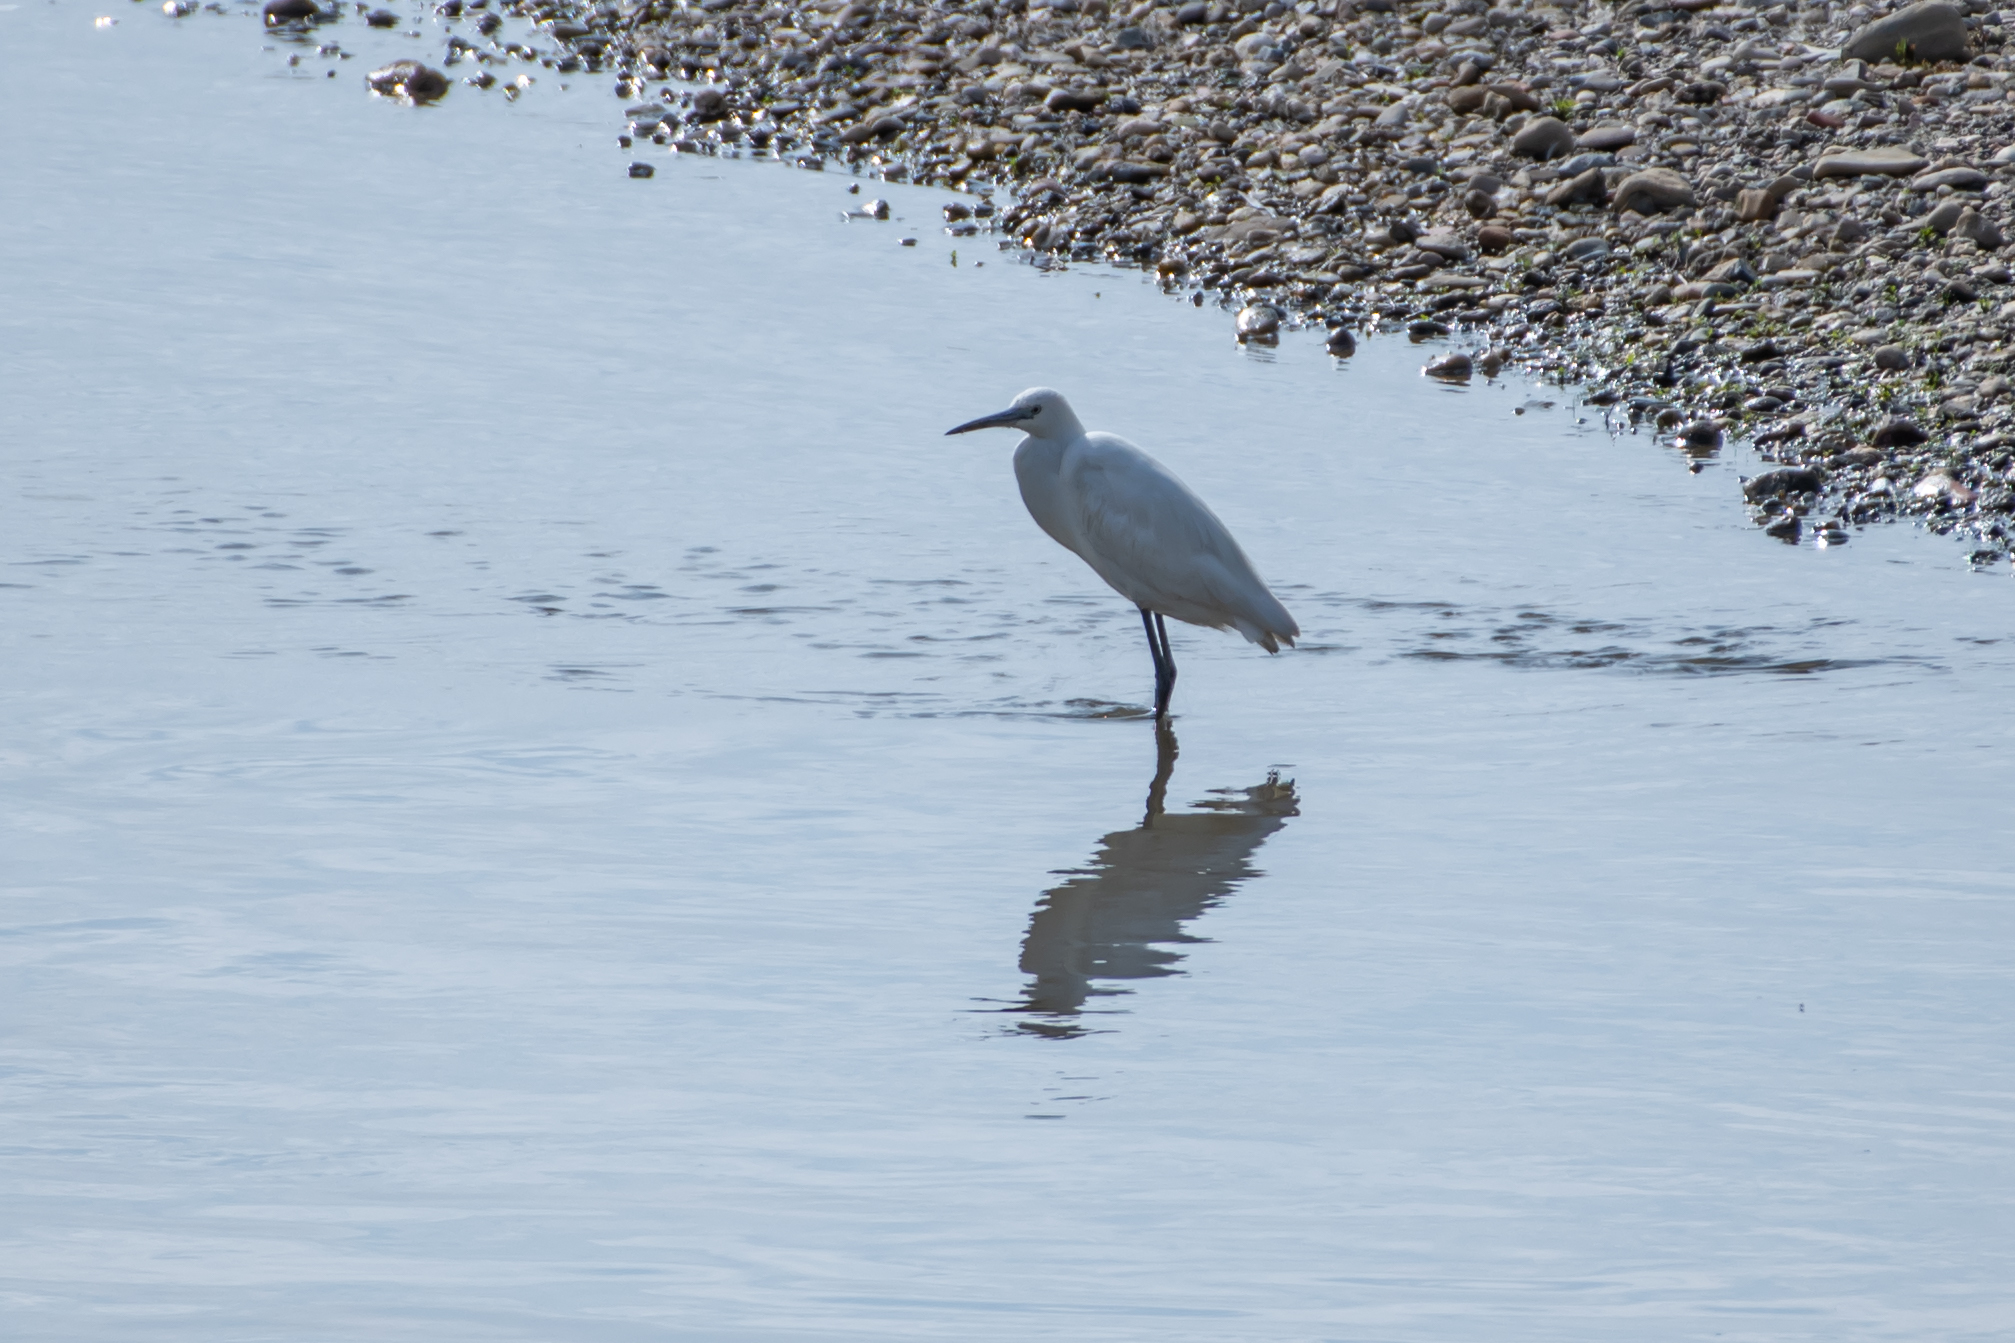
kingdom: Animalia
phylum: Chordata
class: Aves
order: Pelecaniformes
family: Ardeidae
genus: Egretta
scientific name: Egretta garzetta
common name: Little egret
